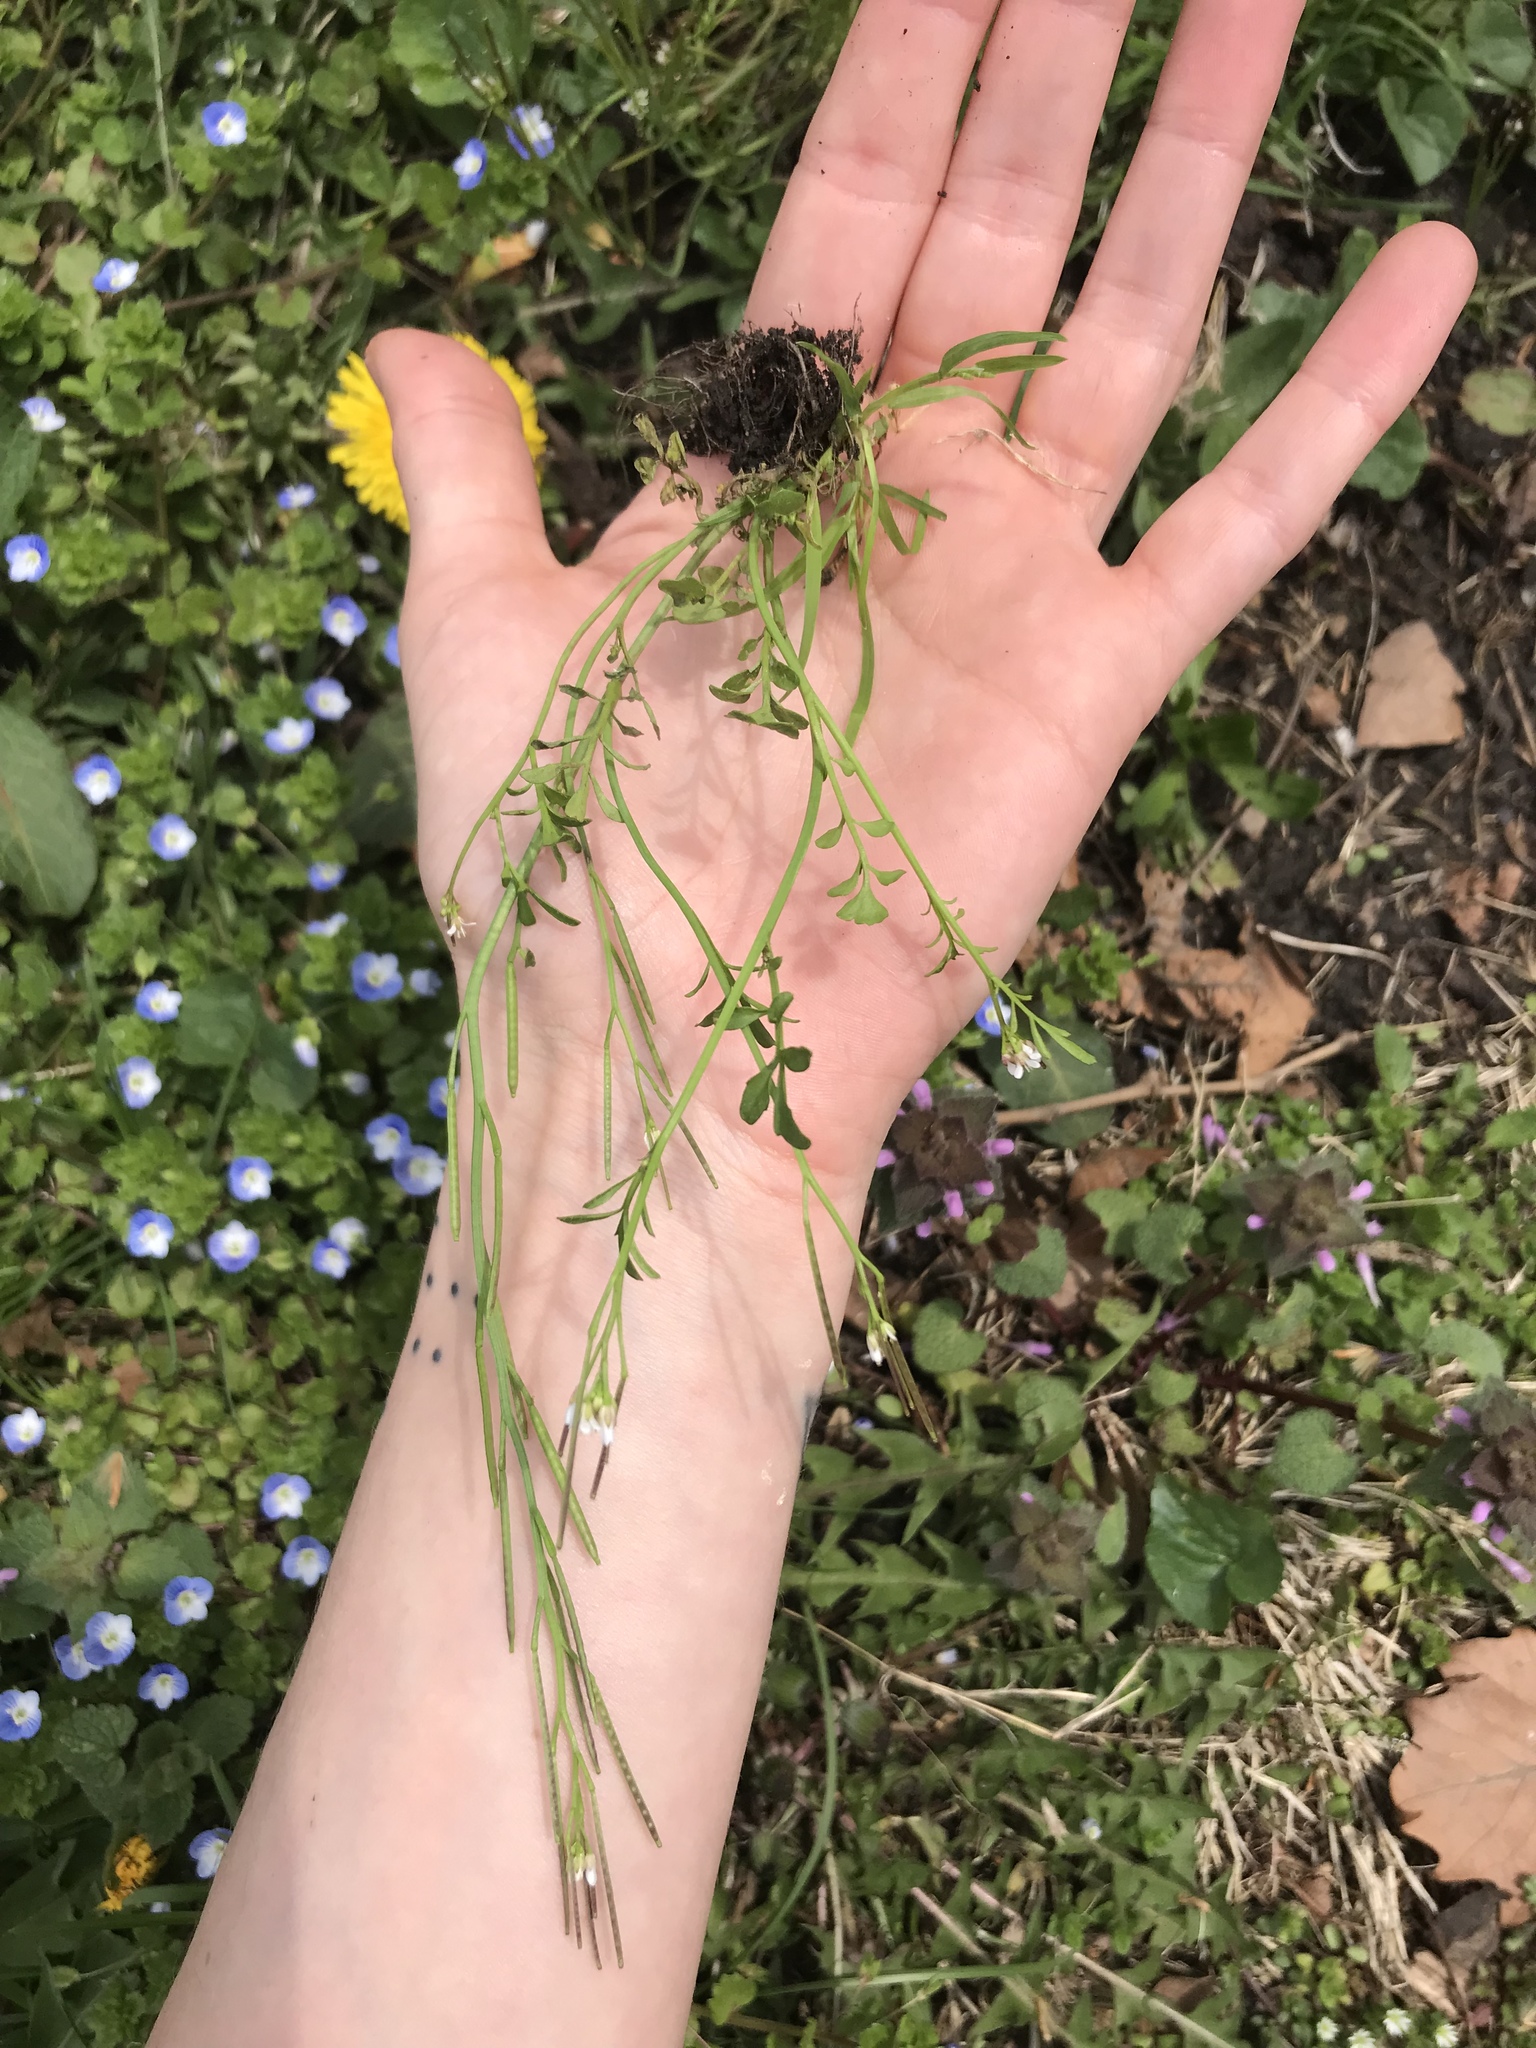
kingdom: Plantae
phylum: Tracheophyta
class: Magnoliopsida
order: Brassicales
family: Brassicaceae
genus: Cardamine
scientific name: Cardamine hirsuta
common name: Hairy bittercress
